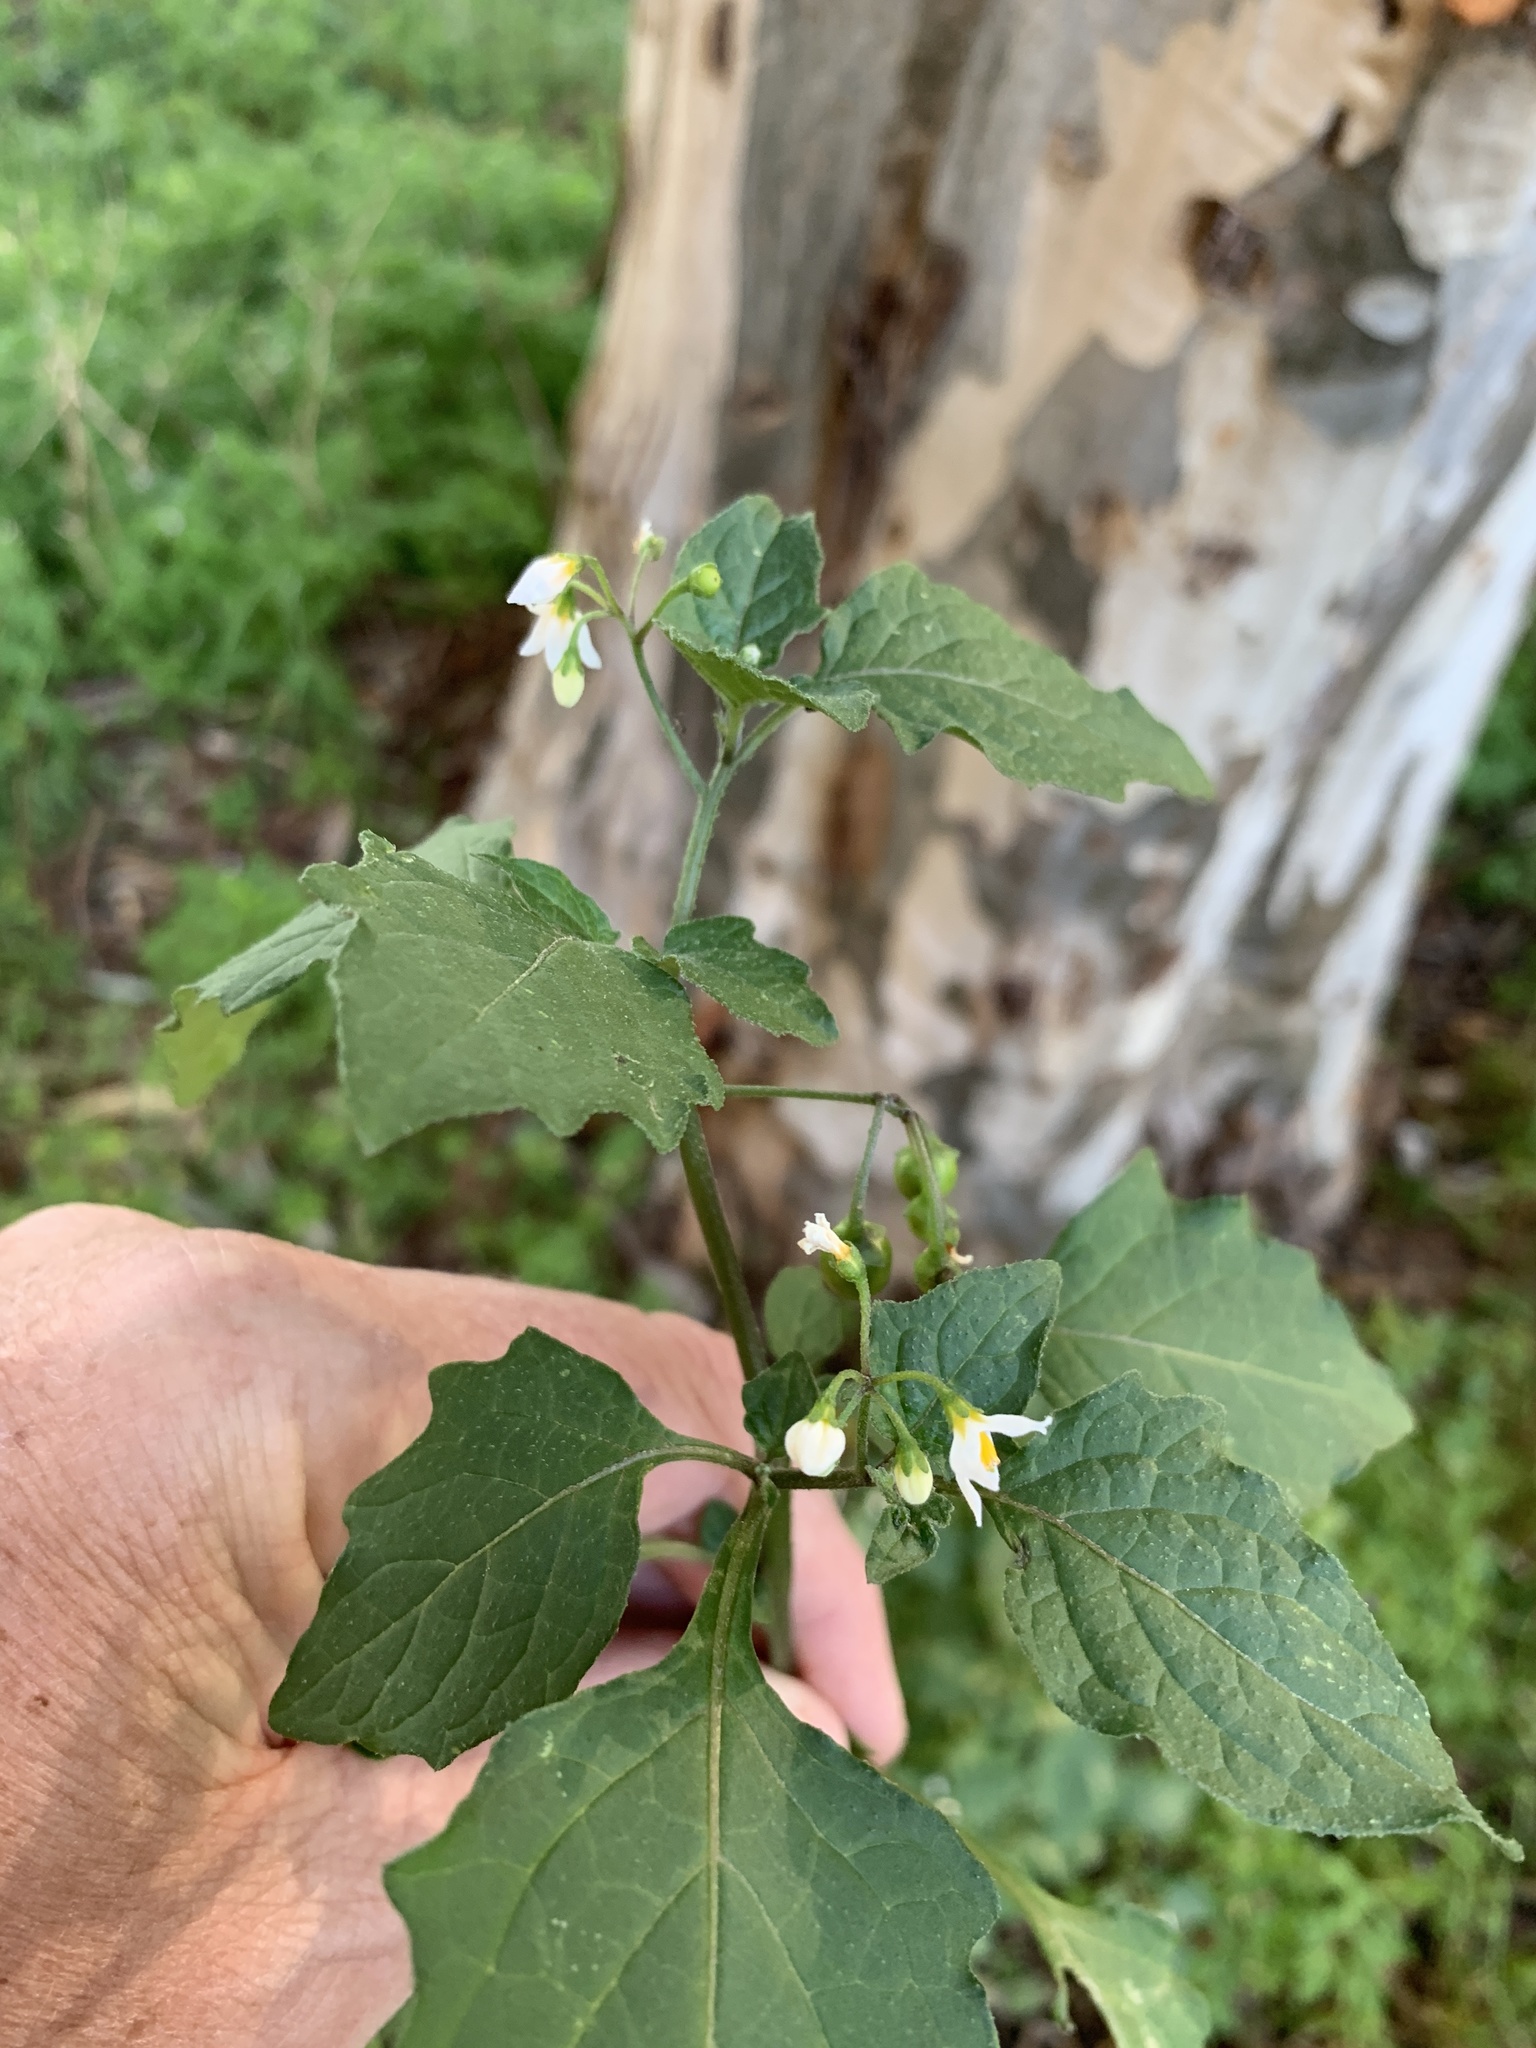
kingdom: Plantae
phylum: Tracheophyta
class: Magnoliopsida
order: Solanales
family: Solanaceae
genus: Solanum
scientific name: Solanum nigrum
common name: Black nightshade
